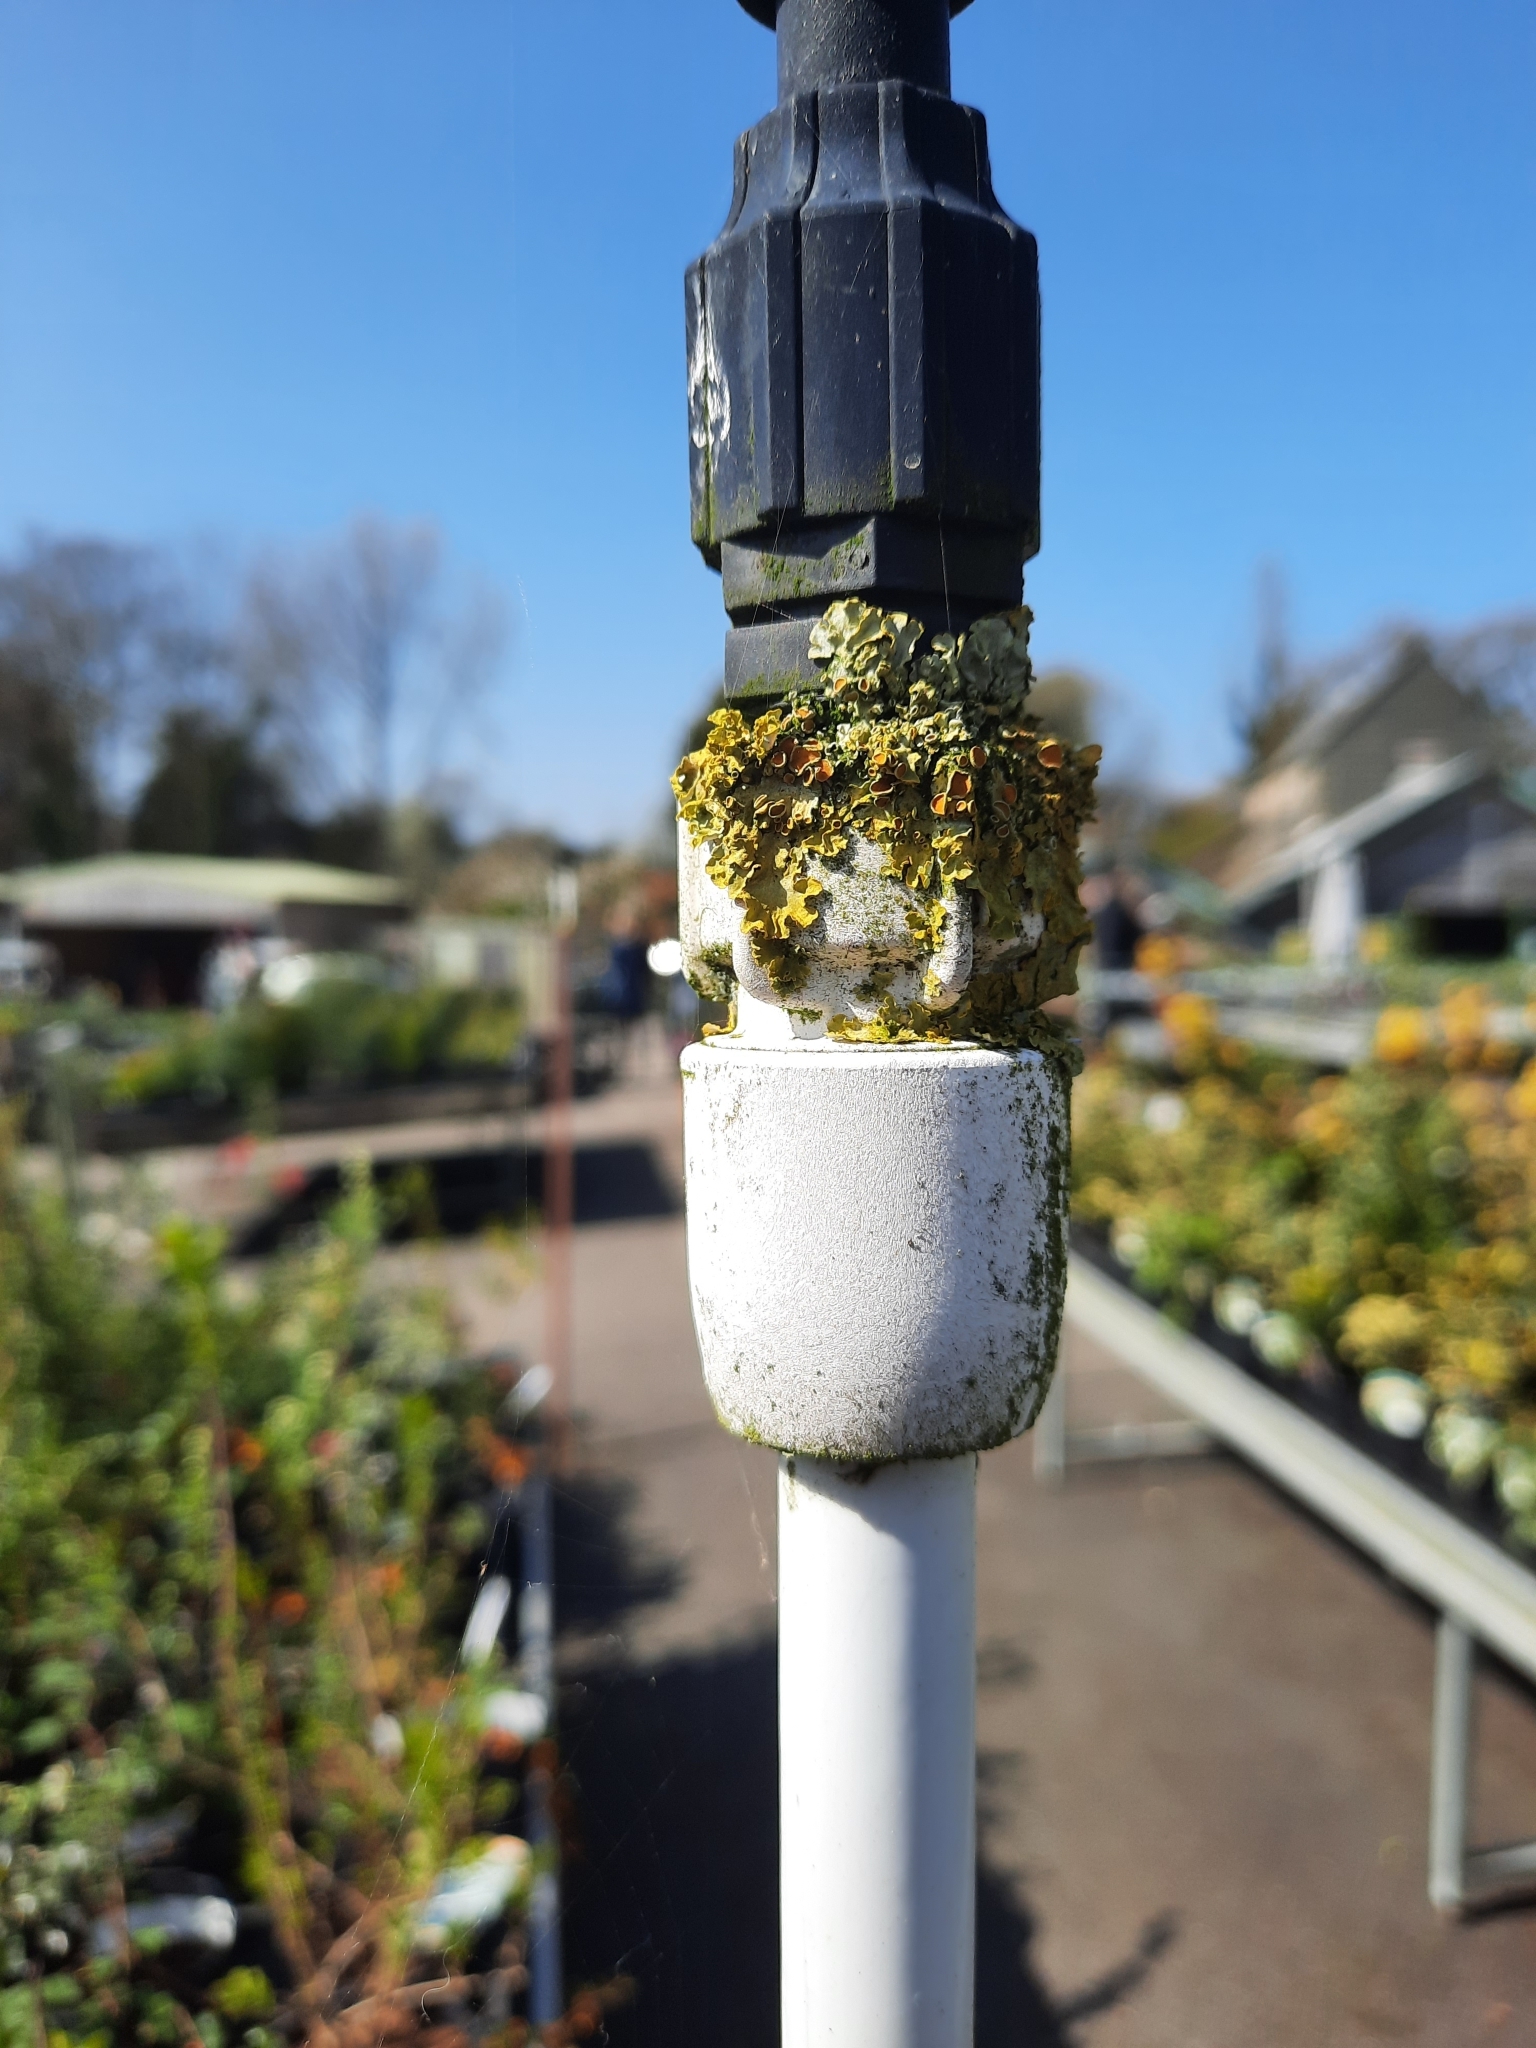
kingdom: Fungi
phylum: Ascomycota
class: Lecanoromycetes
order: Teloschistales
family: Teloschistaceae
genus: Xanthoria
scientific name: Xanthoria parietina
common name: Common orange lichen
